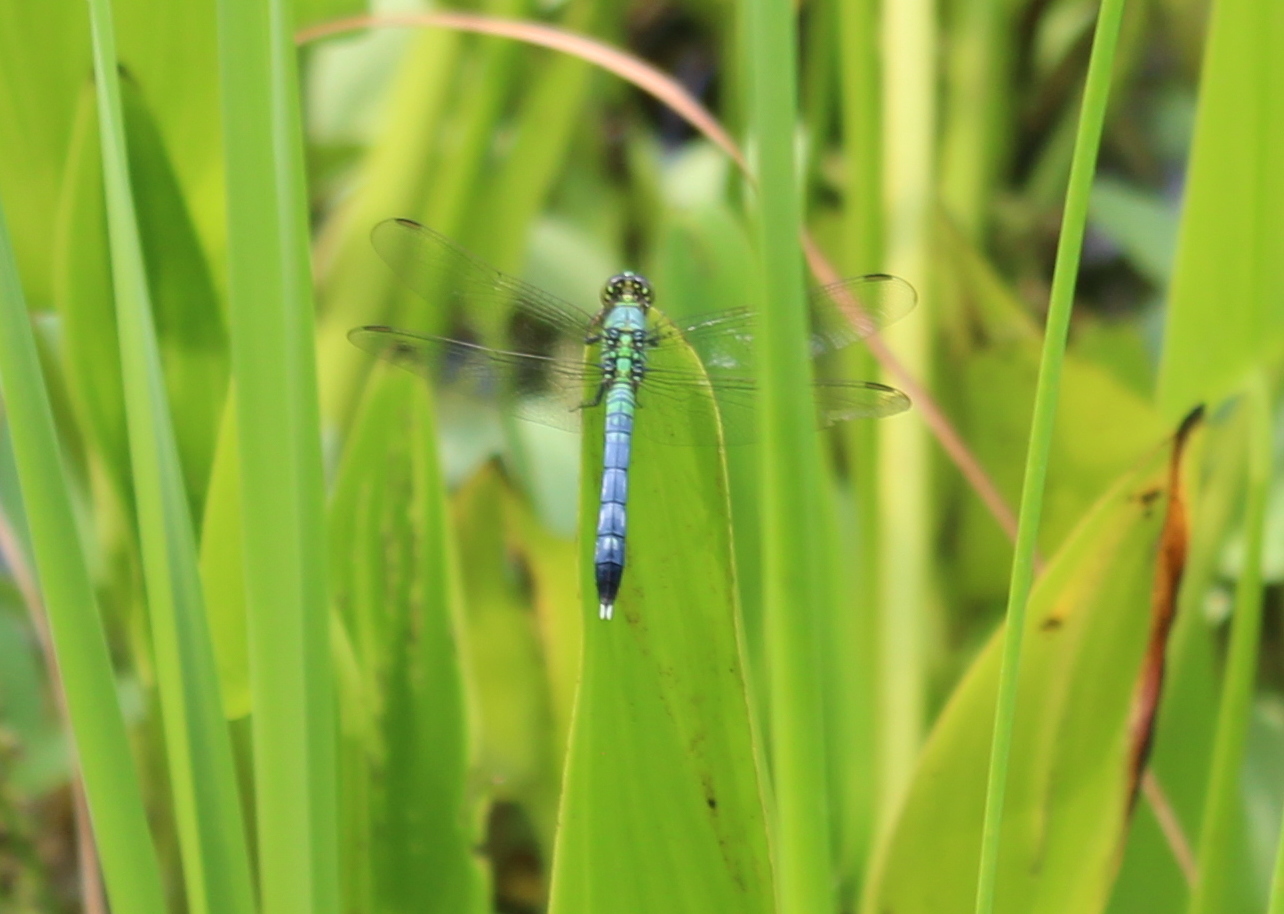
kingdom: Animalia
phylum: Arthropoda
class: Insecta
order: Odonata
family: Libellulidae
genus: Erythemis
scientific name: Erythemis simplicicollis
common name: Eastern pondhawk
